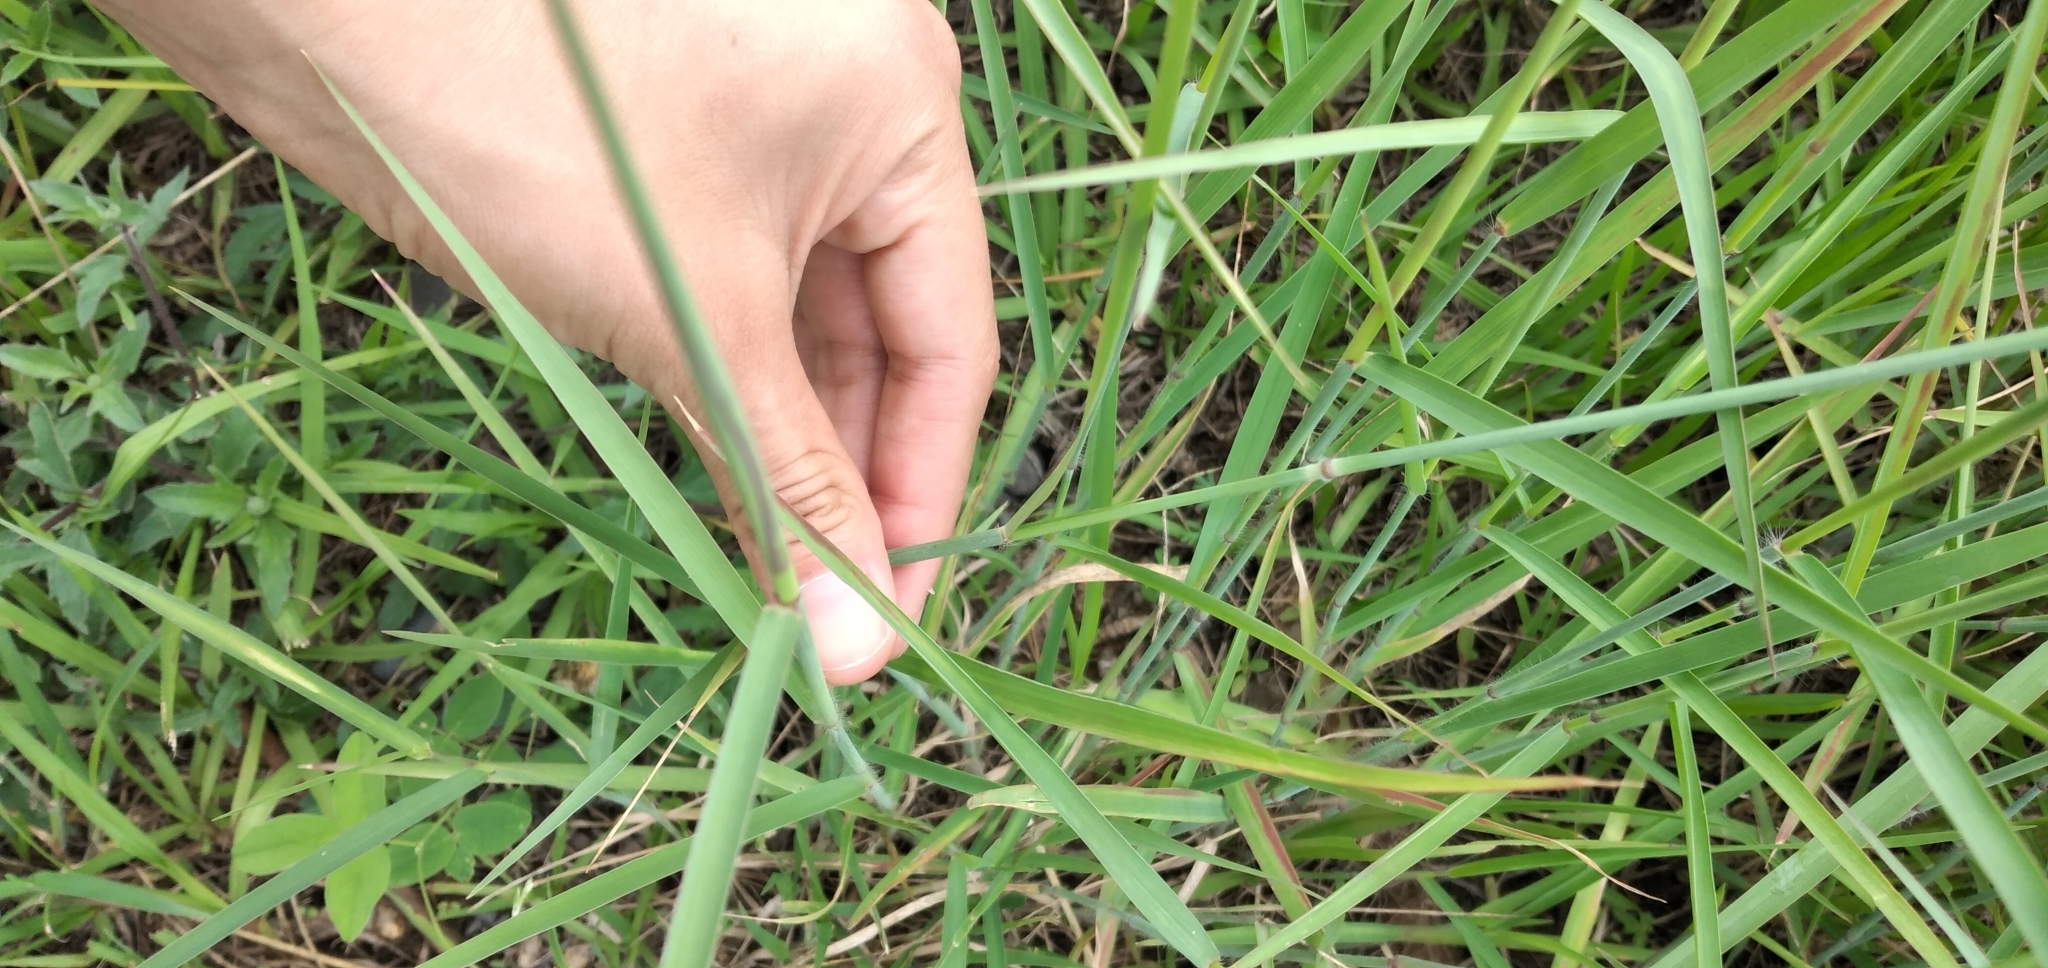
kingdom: Plantae
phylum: Tracheophyta
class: Liliopsida
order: Poales
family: Poaceae
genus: Melinis
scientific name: Melinis repens
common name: Rose natal grass
